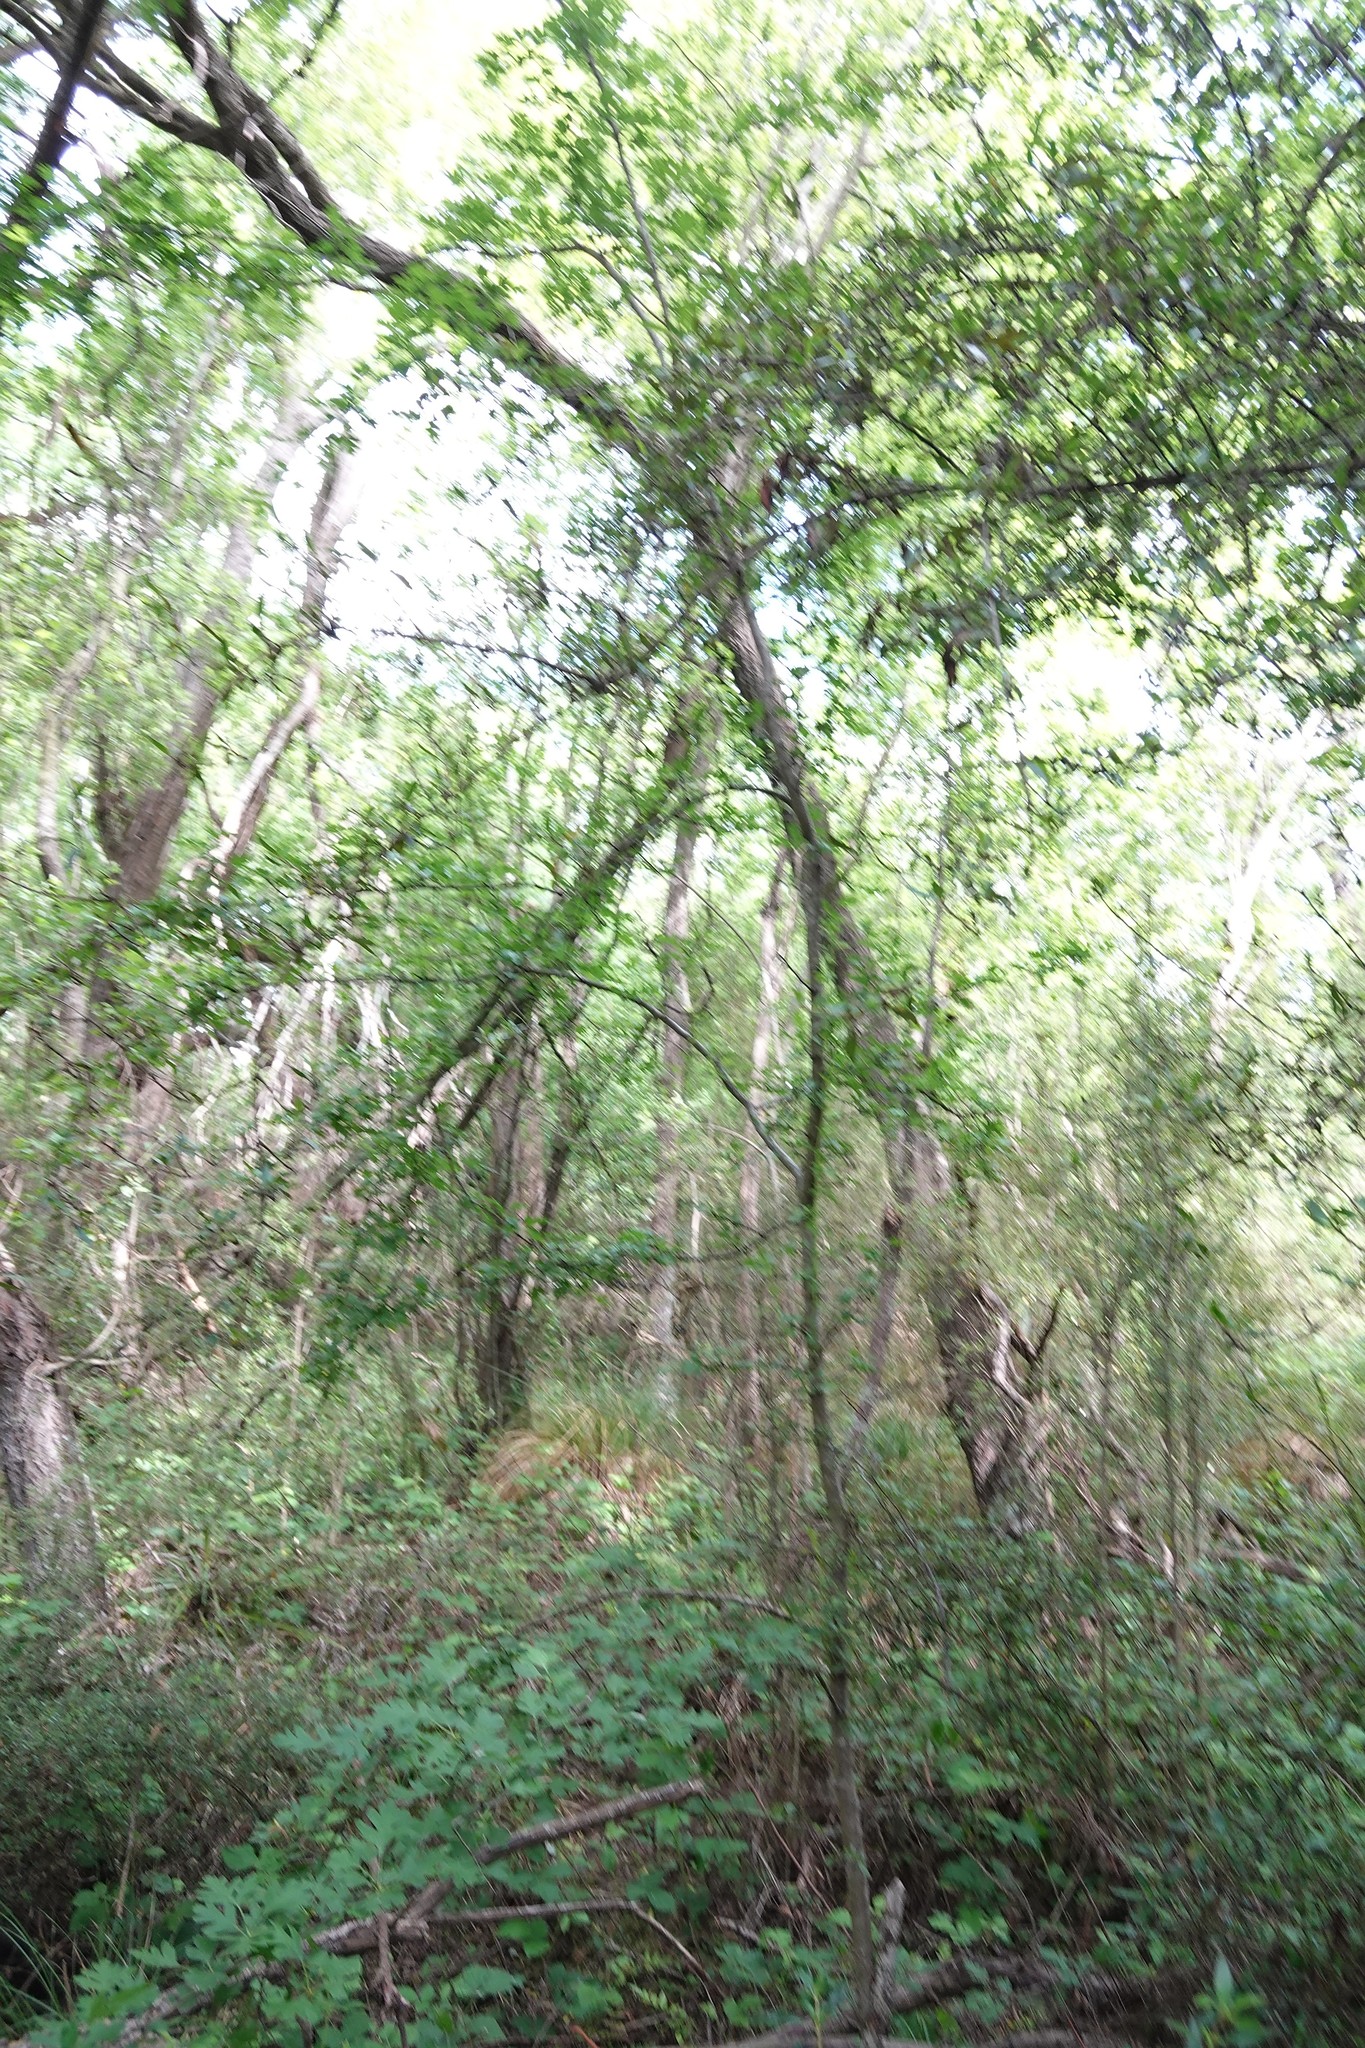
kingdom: Plantae
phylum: Tracheophyta
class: Magnoliopsida
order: Rosales
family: Rosaceae
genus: Crataegus
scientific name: Crataegus monogyna
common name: Hawthorn
